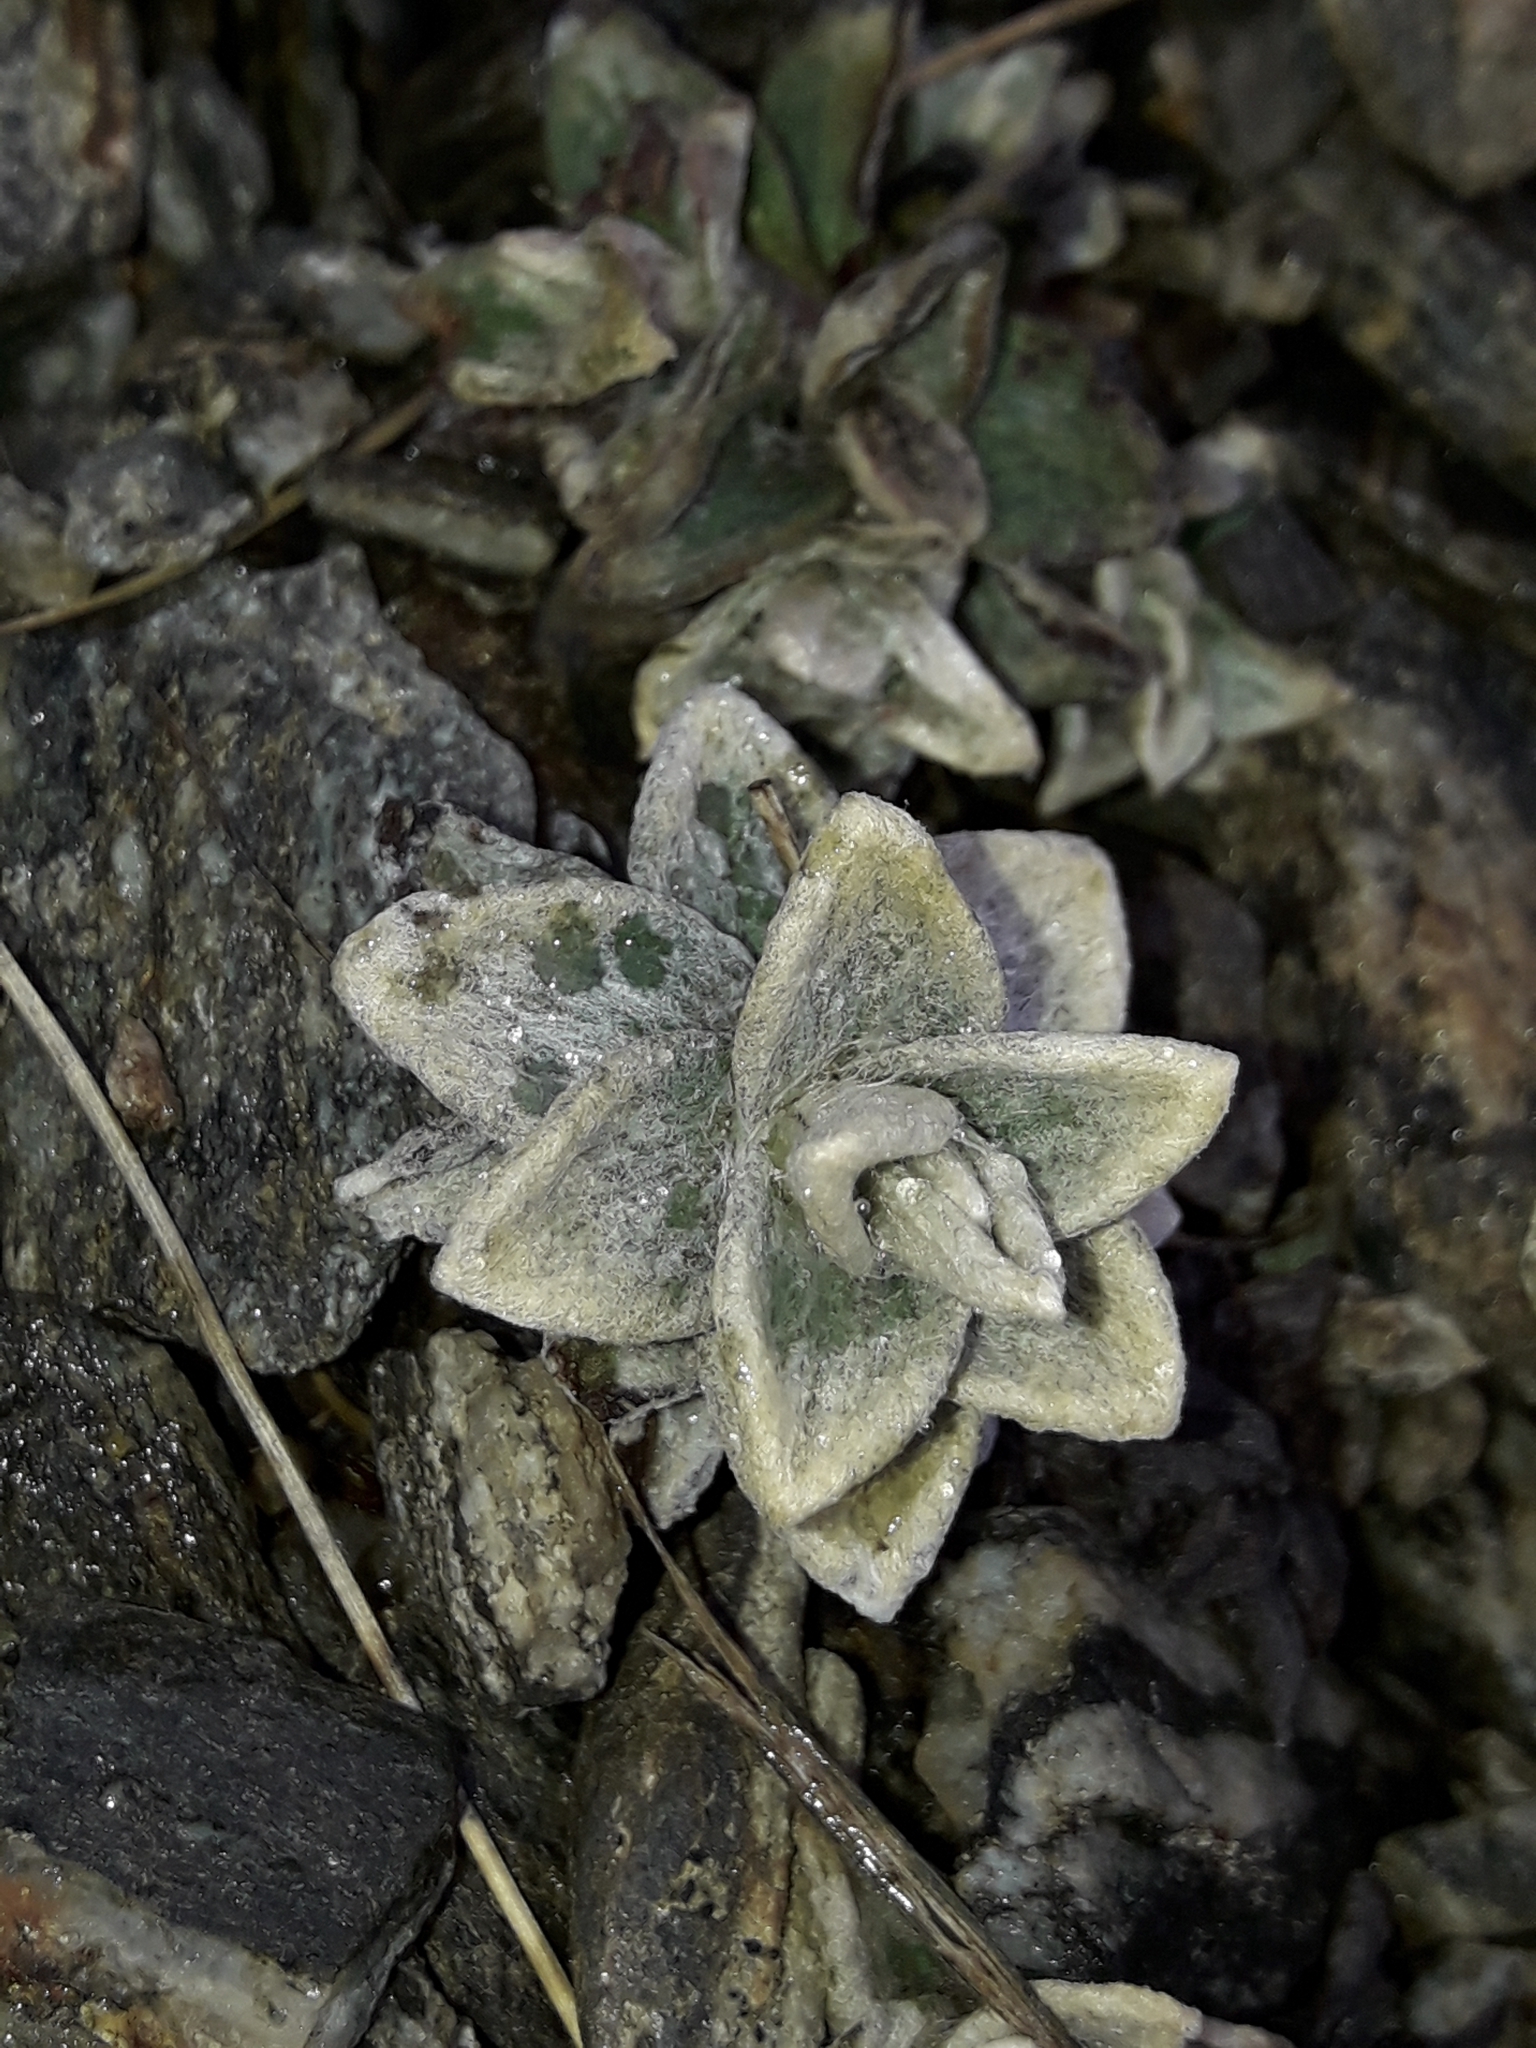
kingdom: Plantae
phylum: Tracheophyta
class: Magnoliopsida
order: Asterales
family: Asteraceae
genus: Haastia
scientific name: Haastia sinclairii
